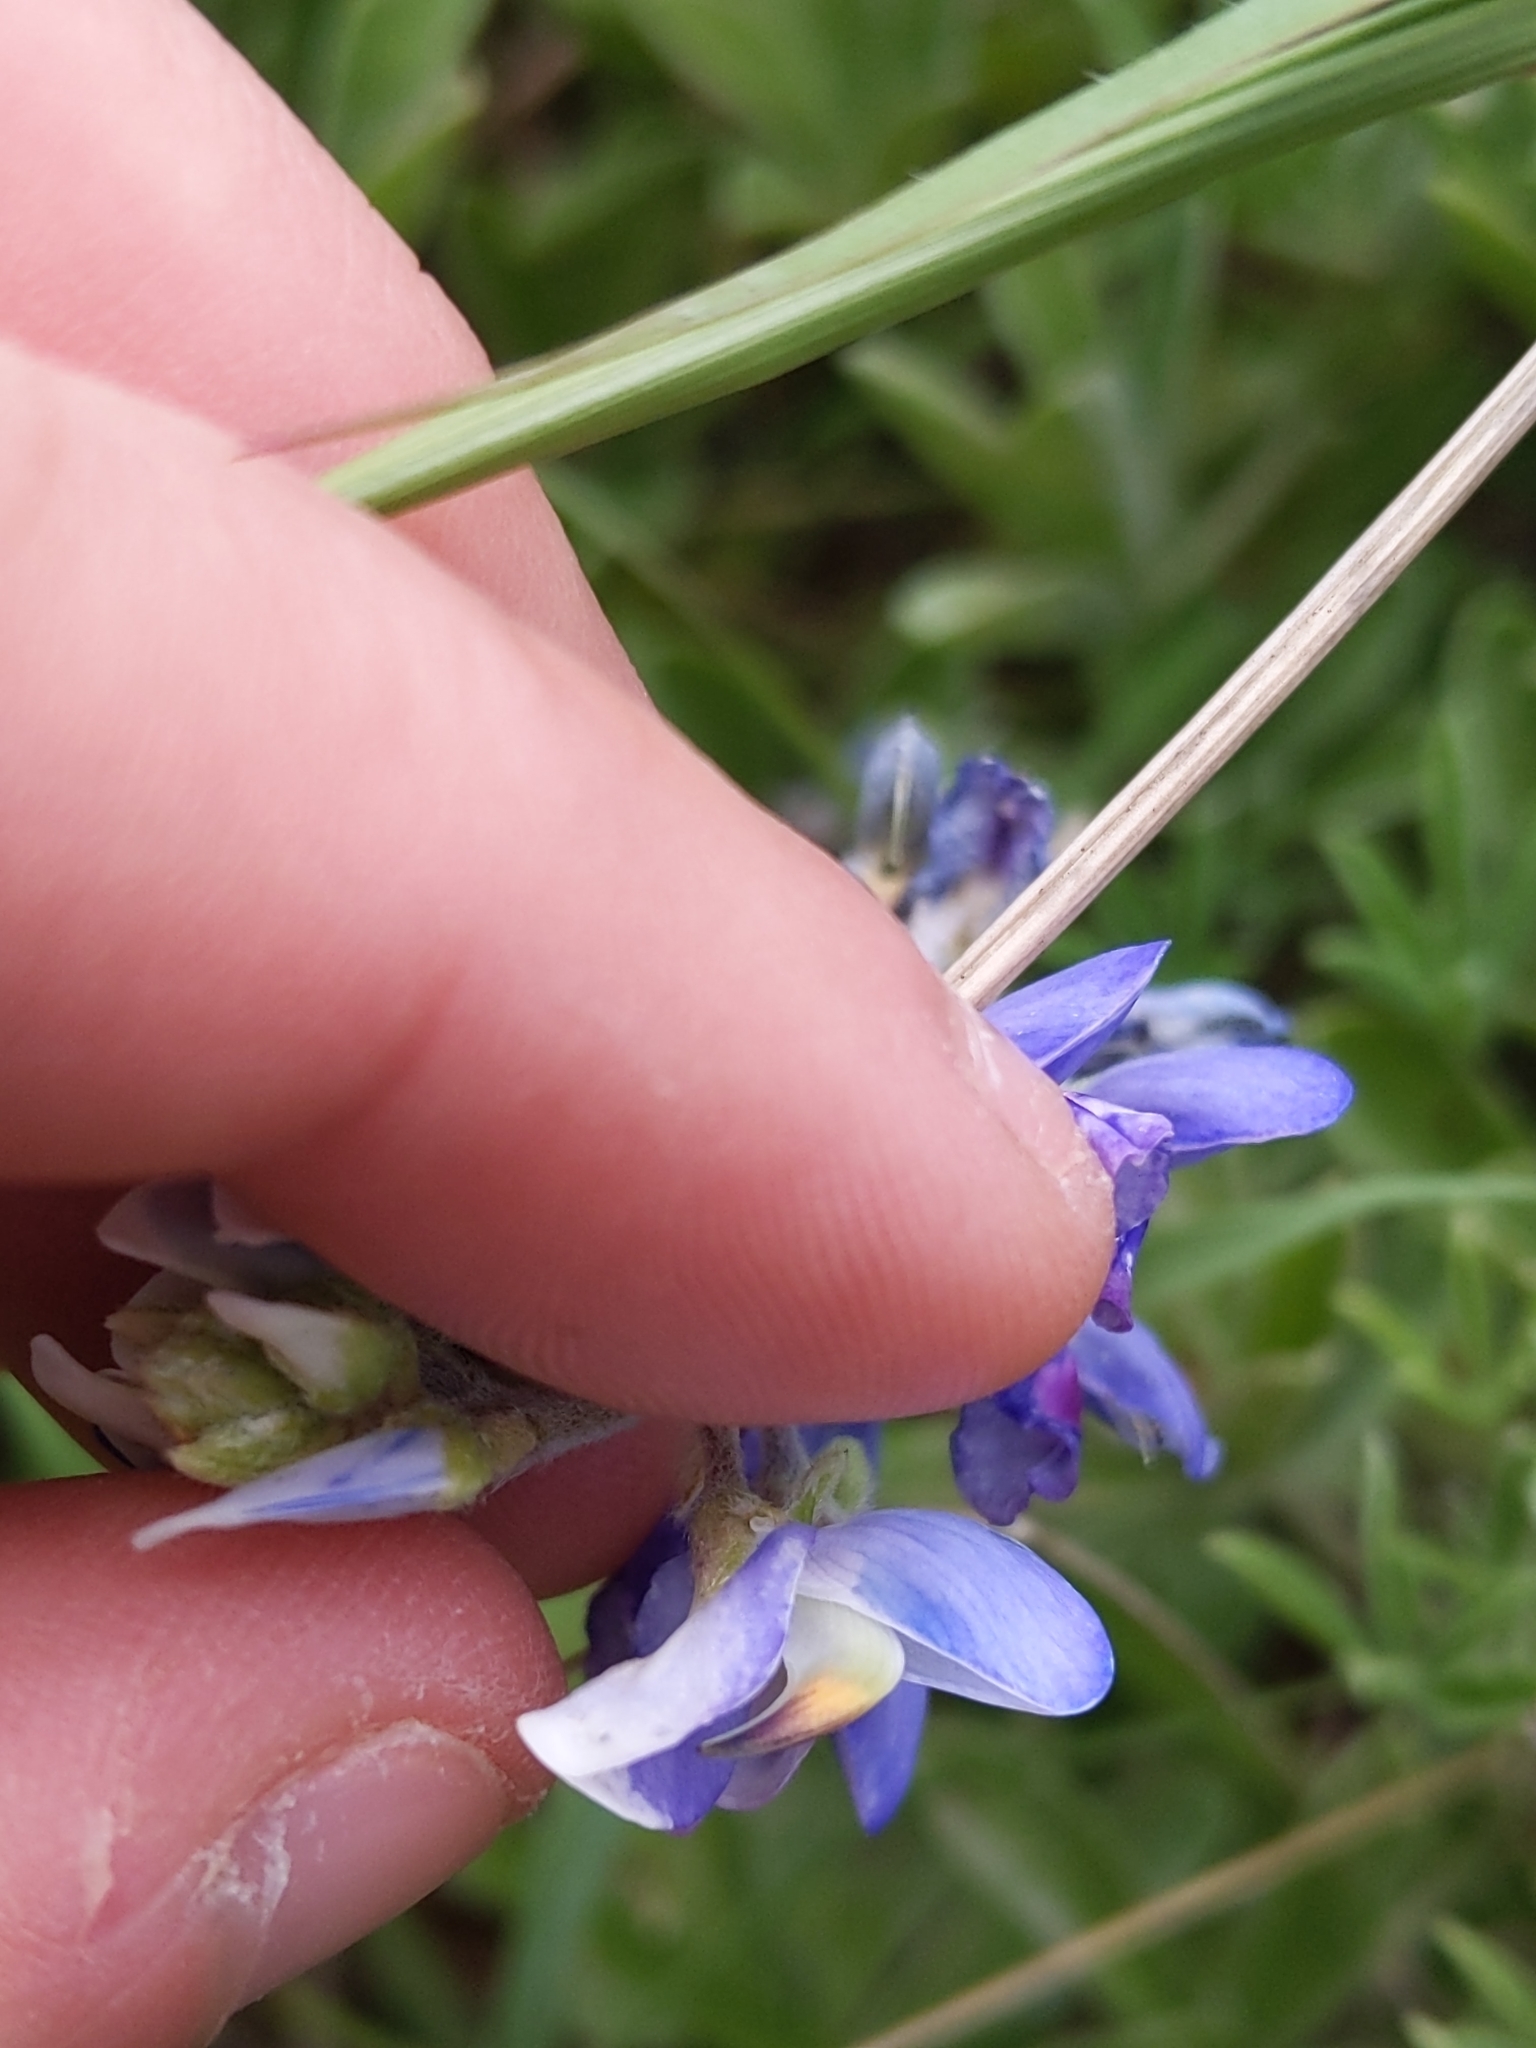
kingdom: Plantae
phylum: Tracheophyta
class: Magnoliopsida
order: Fabales
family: Fabaceae
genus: Lupinus
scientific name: Lupinus texensis
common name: Texas bluebonnet
